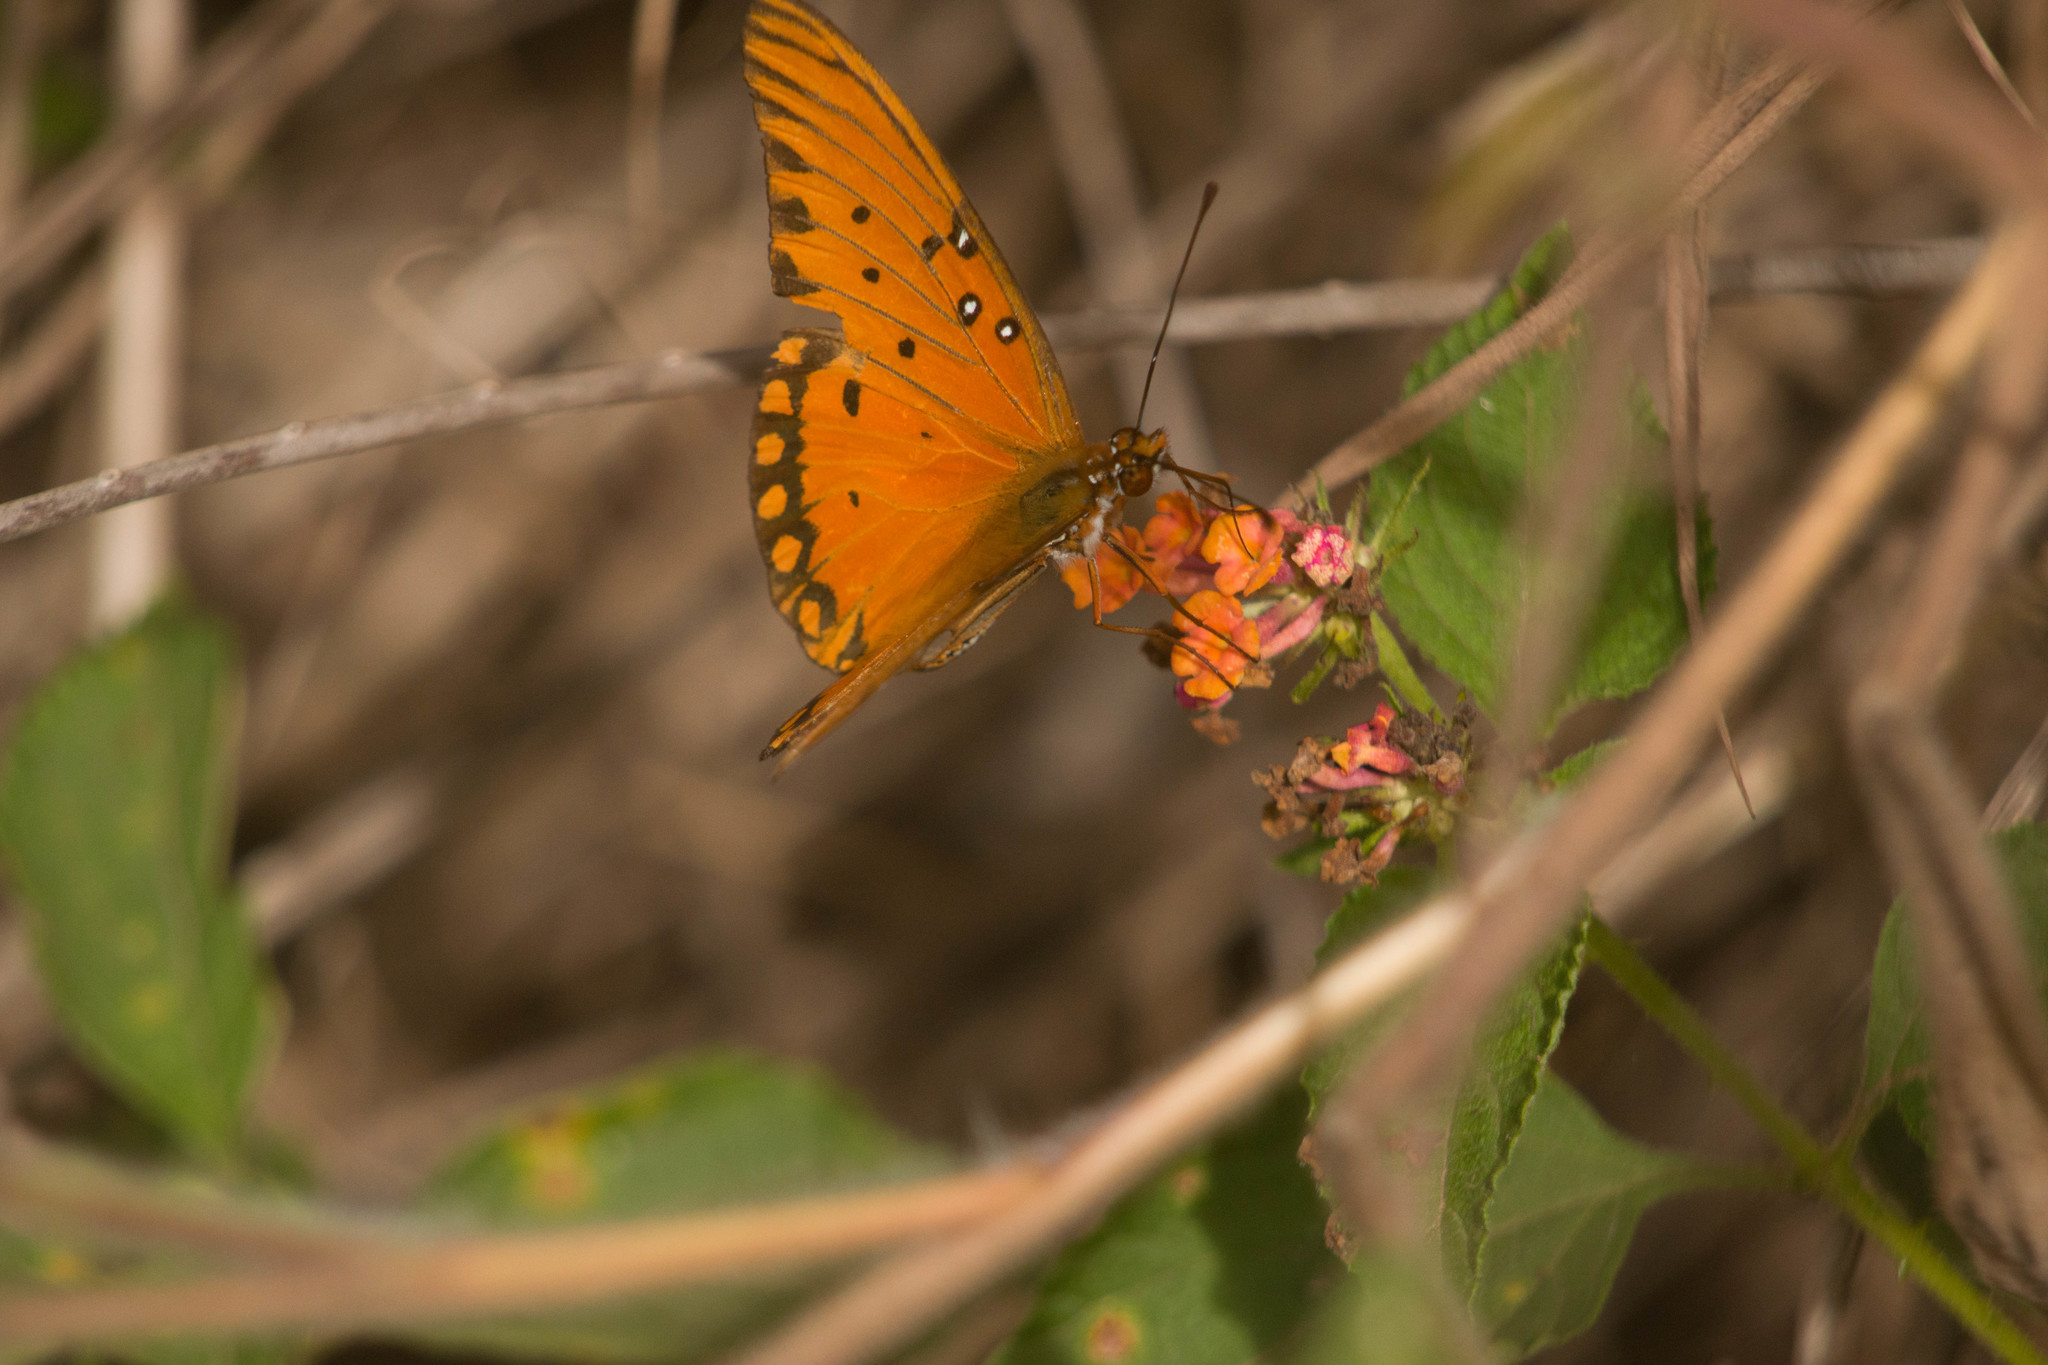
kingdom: Animalia
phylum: Arthropoda
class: Insecta
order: Lepidoptera
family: Nymphalidae
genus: Dione
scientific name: Dione vanillae
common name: Gulf fritillary
